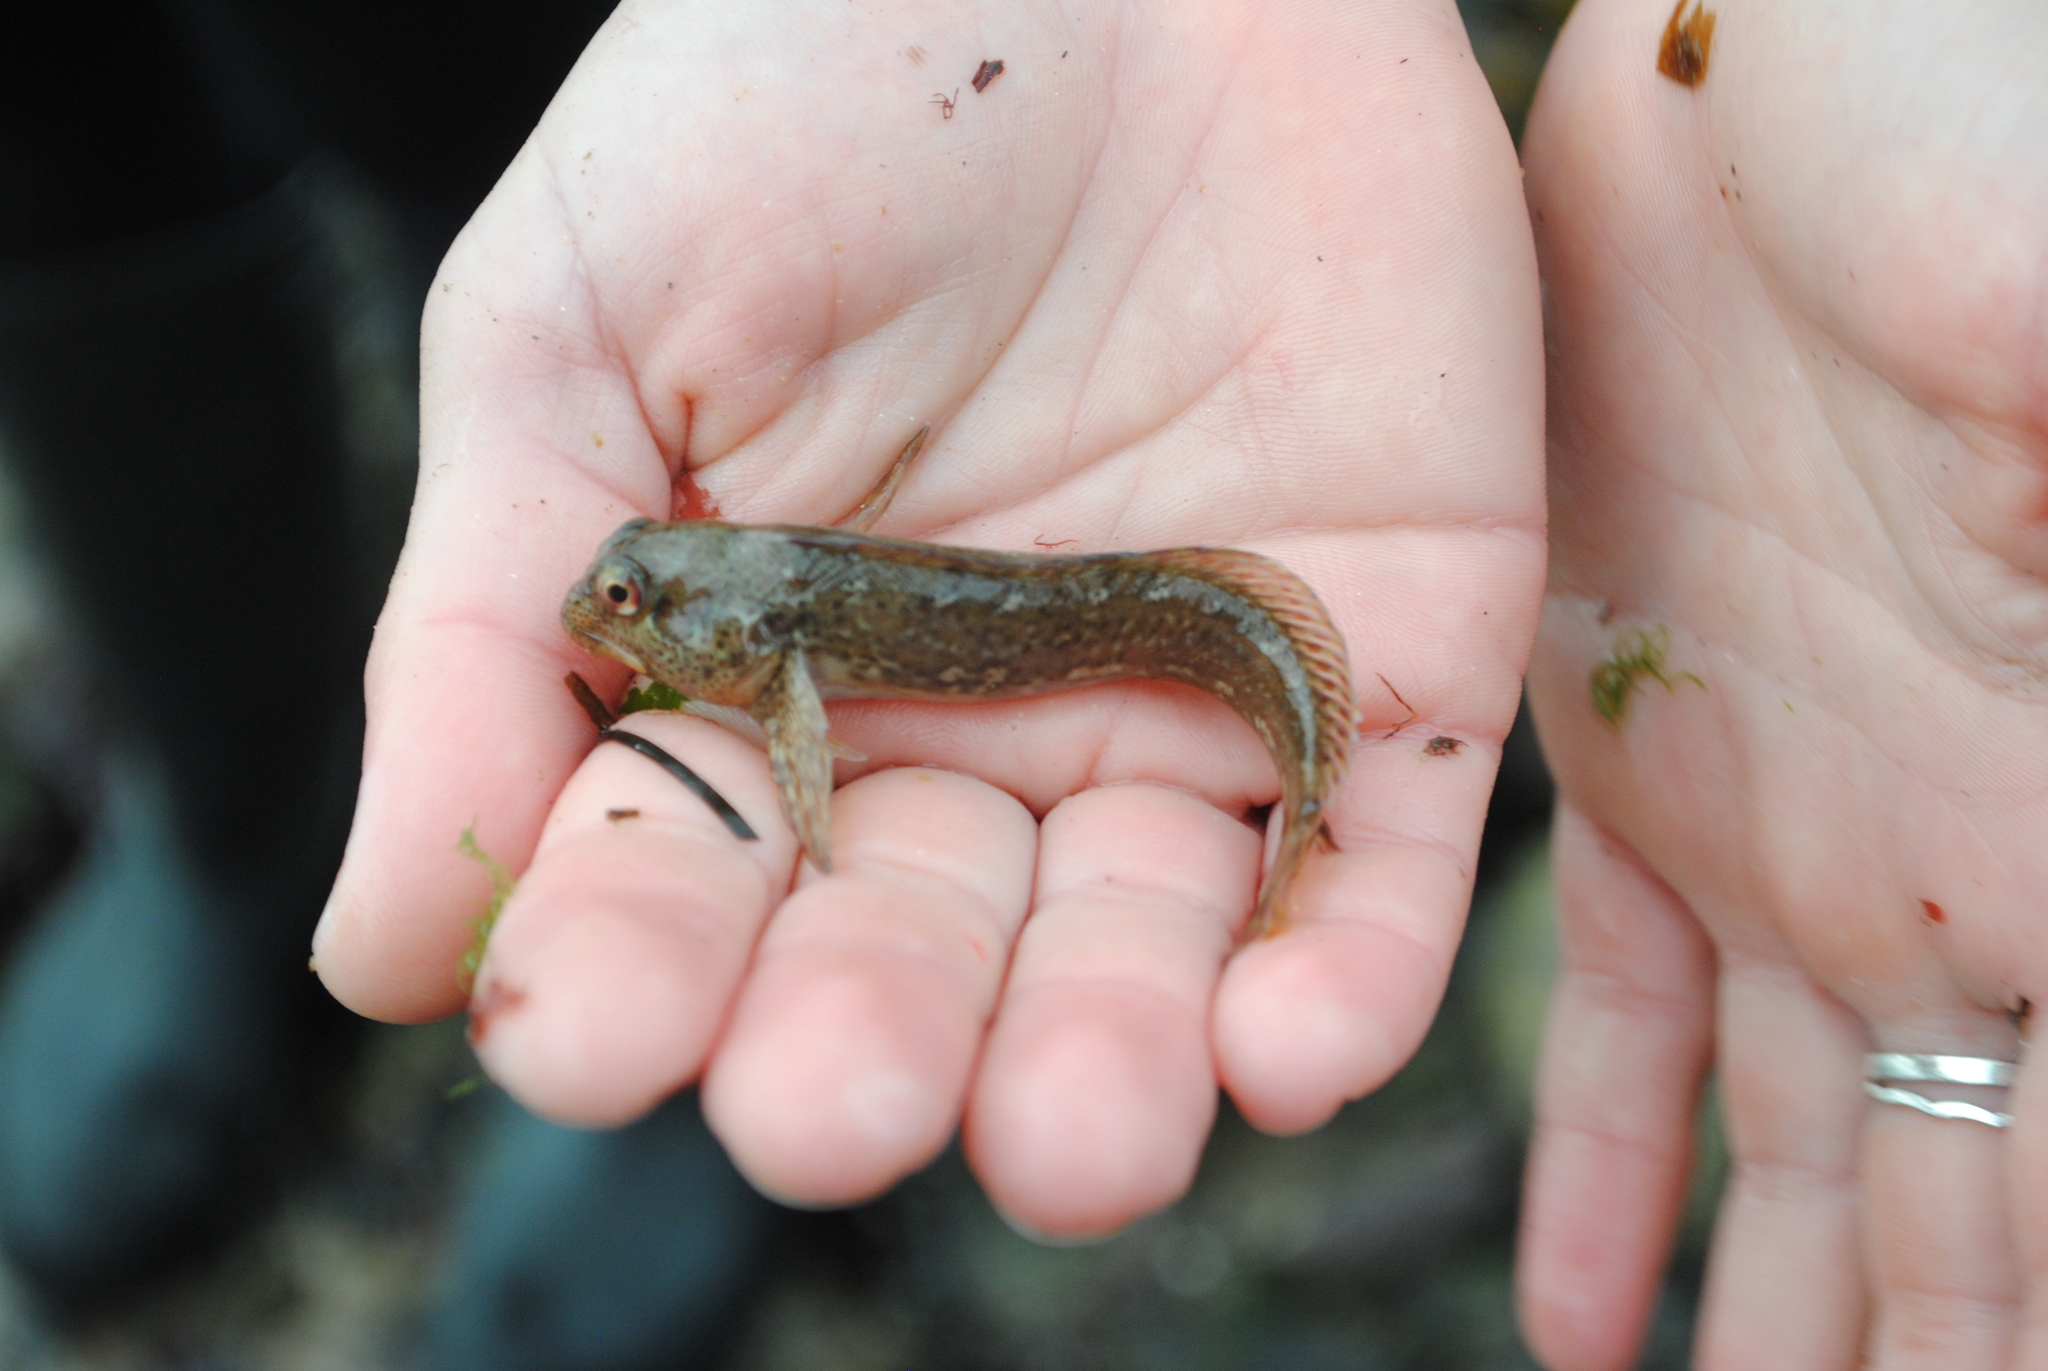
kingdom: Animalia
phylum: Chordata
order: Perciformes
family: Blenniidae
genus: Lipophrys
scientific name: Lipophrys pholis
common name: Shanny
